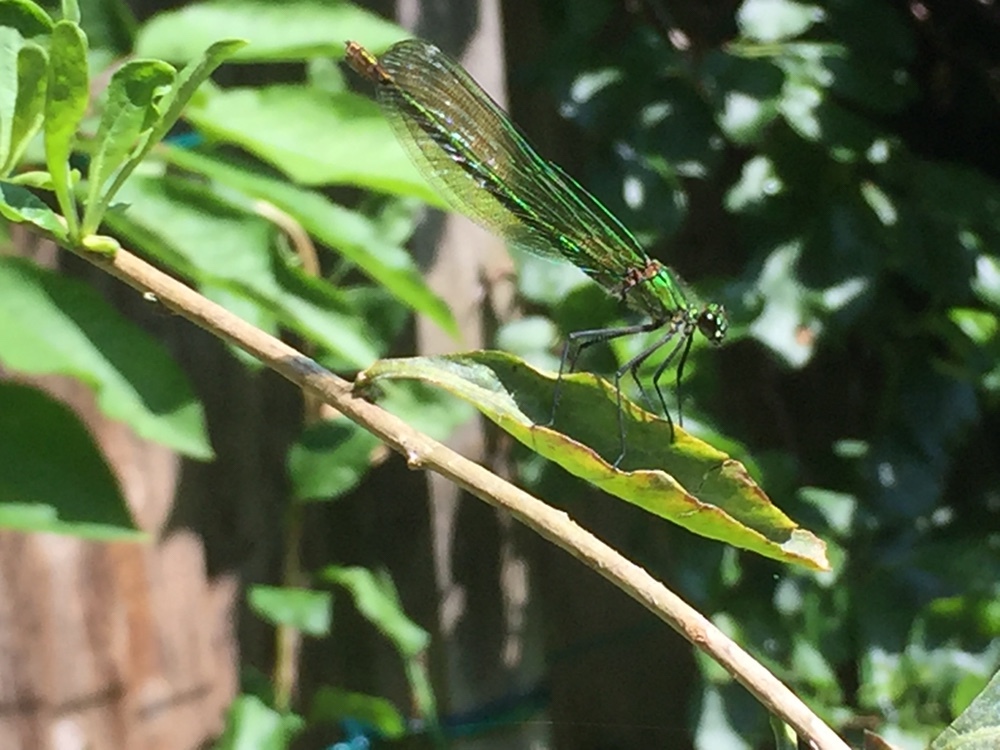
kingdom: Animalia
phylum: Arthropoda
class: Insecta
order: Odonata
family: Calopterygidae
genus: Calopteryx
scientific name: Calopteryx splendens
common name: Banded demoiselle
